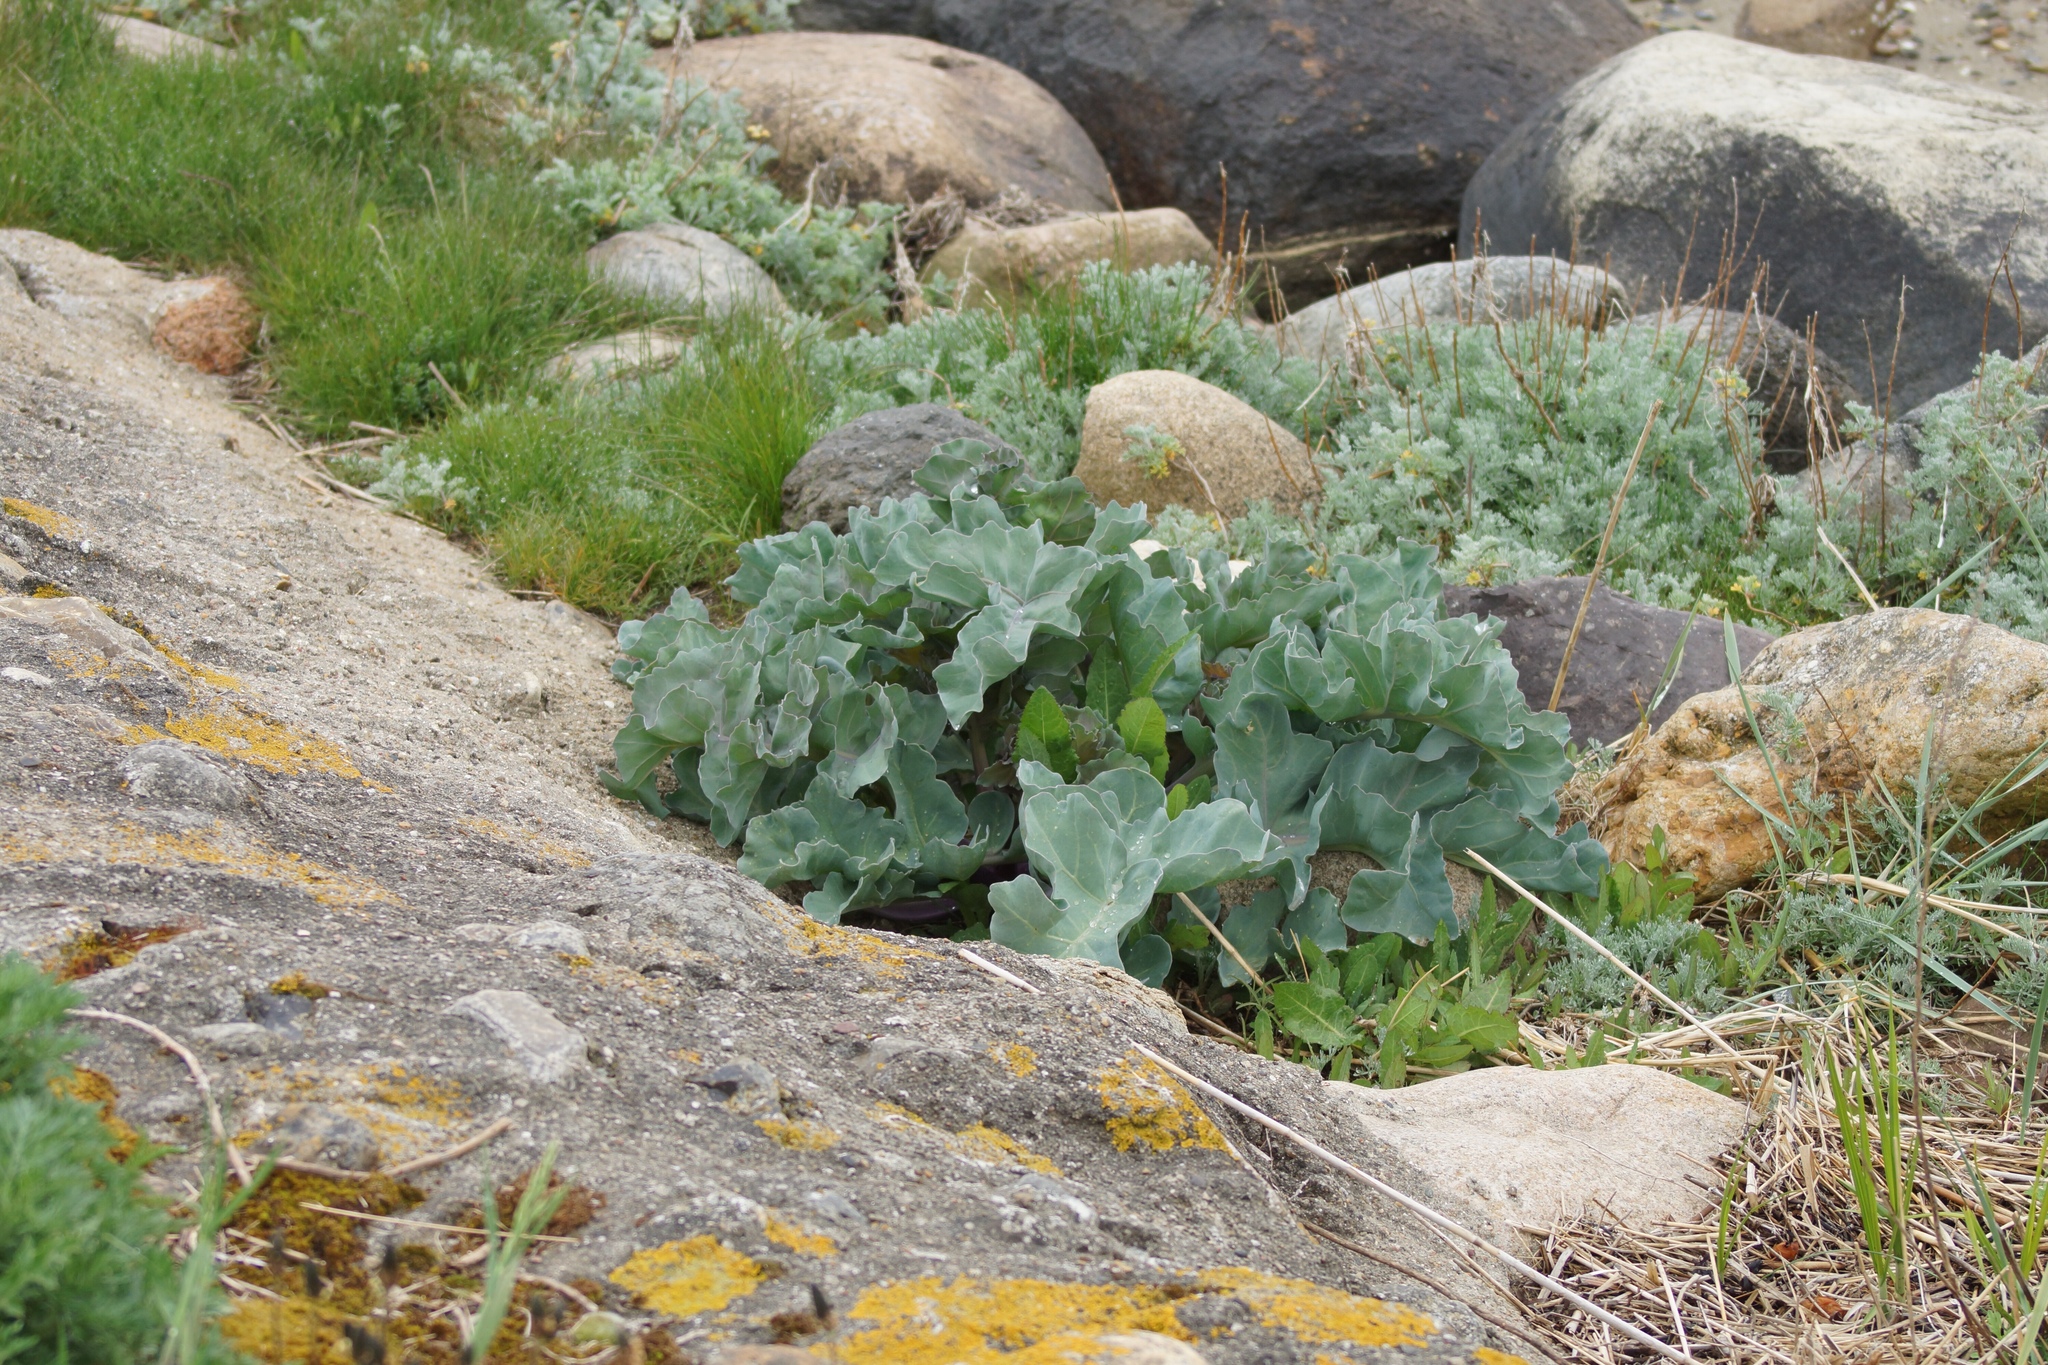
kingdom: Plantae
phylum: Tracheophyta
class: Magnoliopsida
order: Brassicales
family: Brassicaceae
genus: Crambe
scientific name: Crambe maritima
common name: Sea-kale
